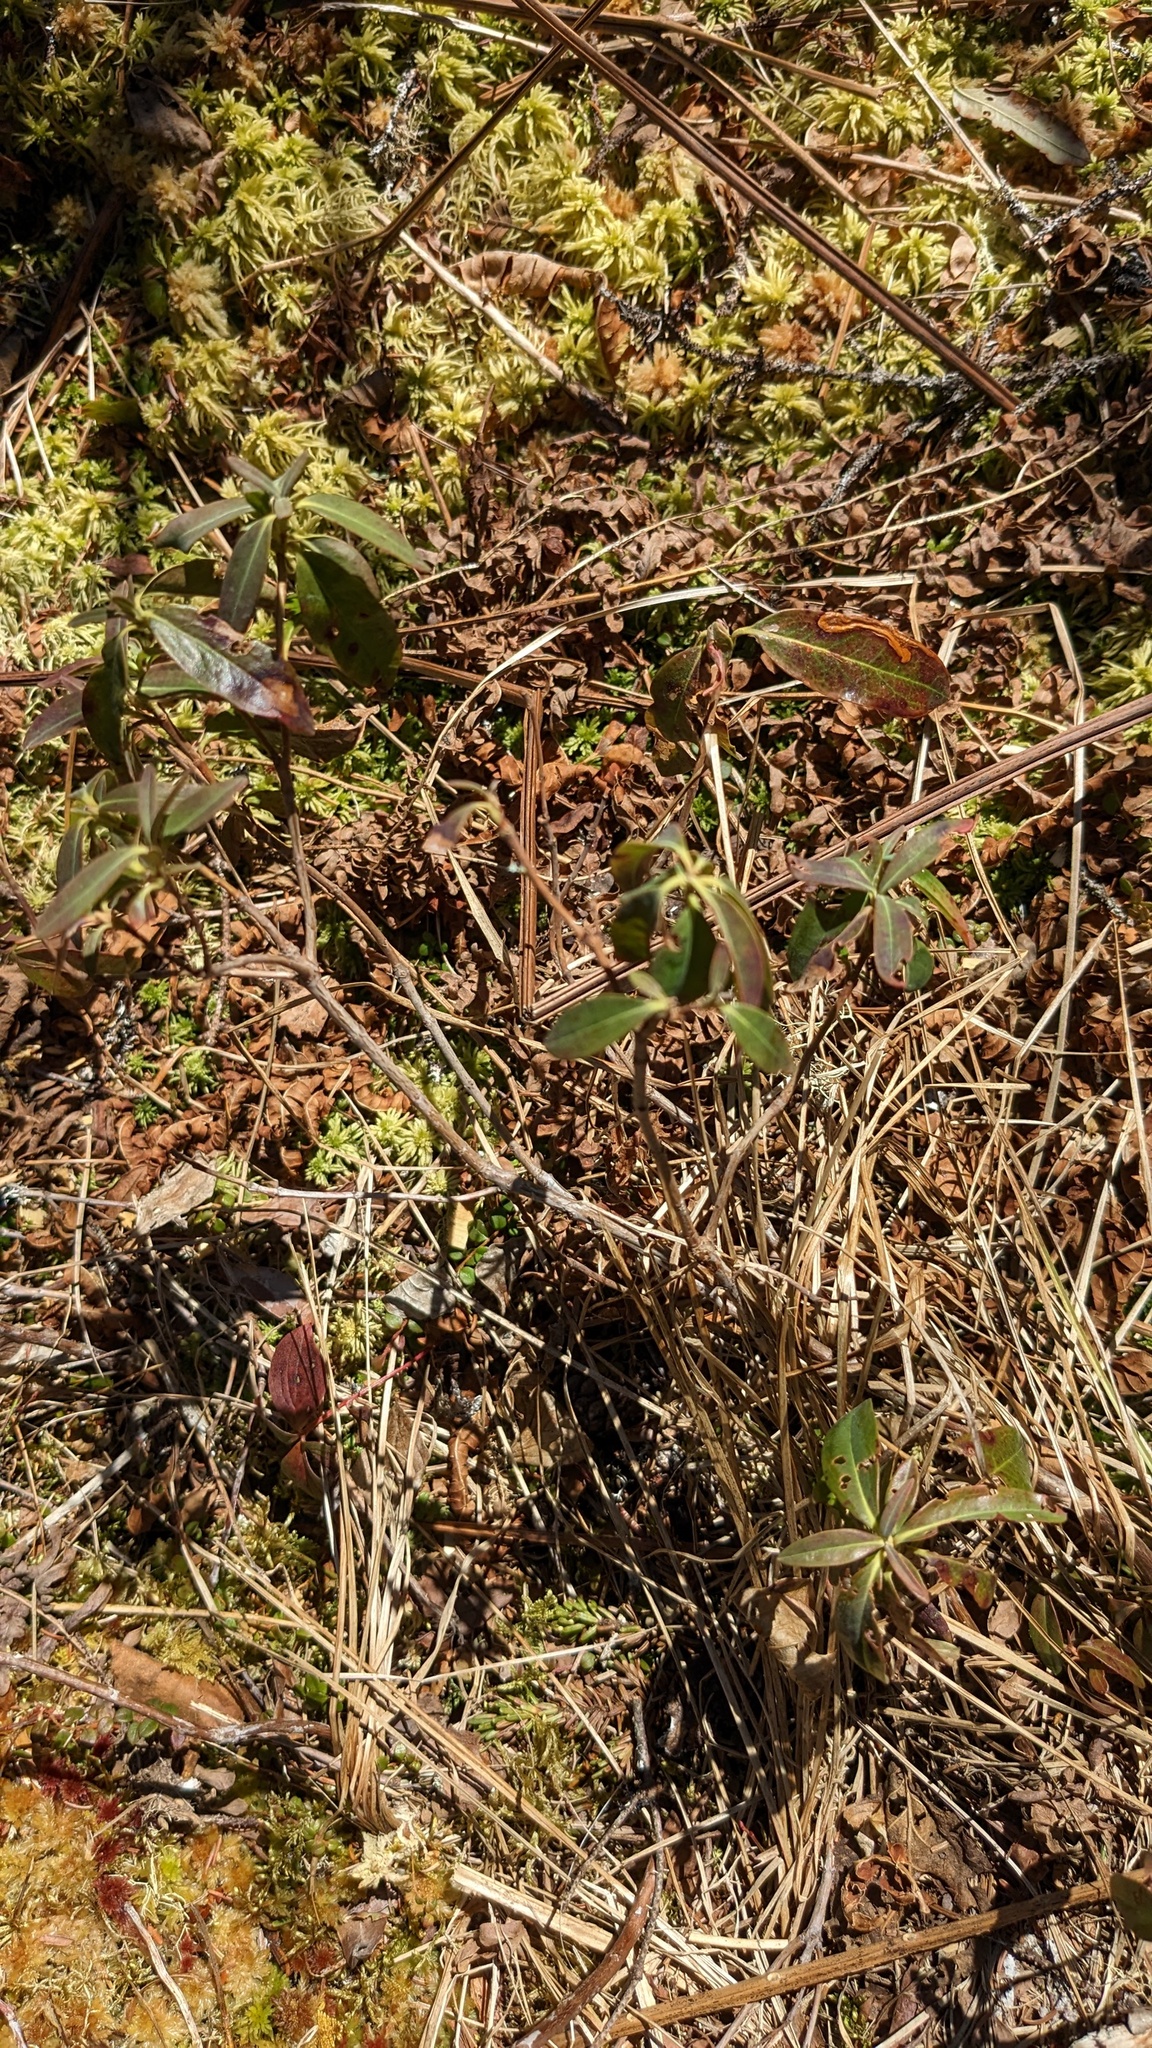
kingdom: Plantae
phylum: Tracheophyta
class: Magnoliopsida
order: Ericales
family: Ericaceae
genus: Kalmia
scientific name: Kalmia angustifolia
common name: Sheep-laurel
